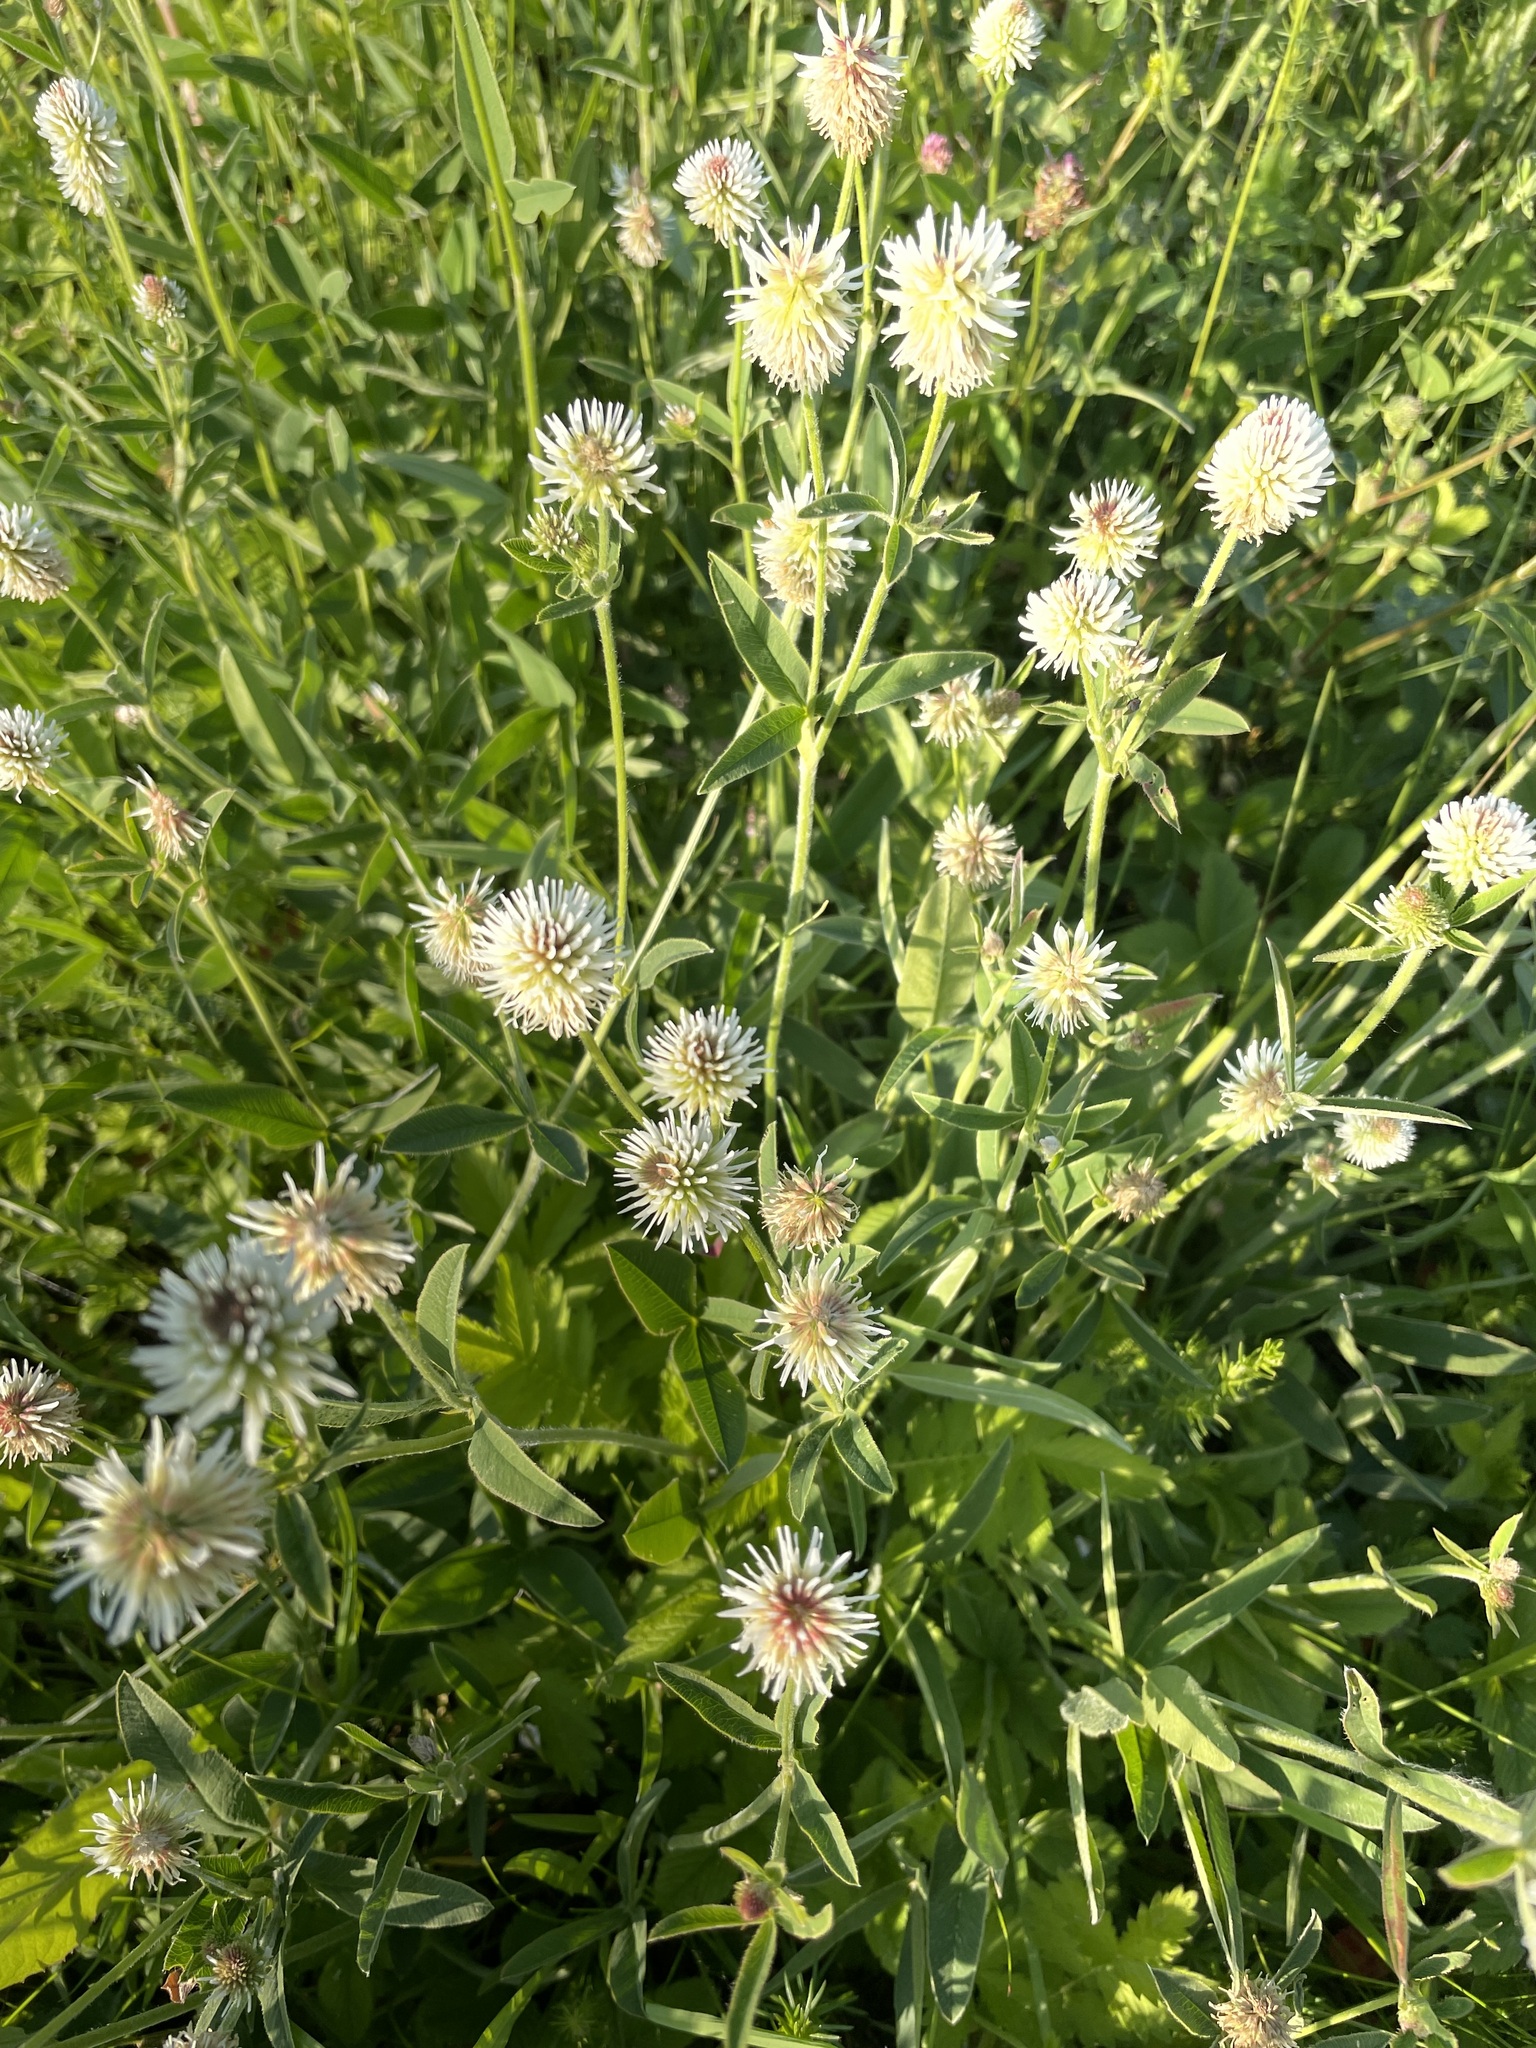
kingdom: Plantae
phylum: Tracheophyta
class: Magnoliopsida
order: Fabales
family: Fabaceae
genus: Trifolium
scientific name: Trifolium montanum
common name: Mountain clover
